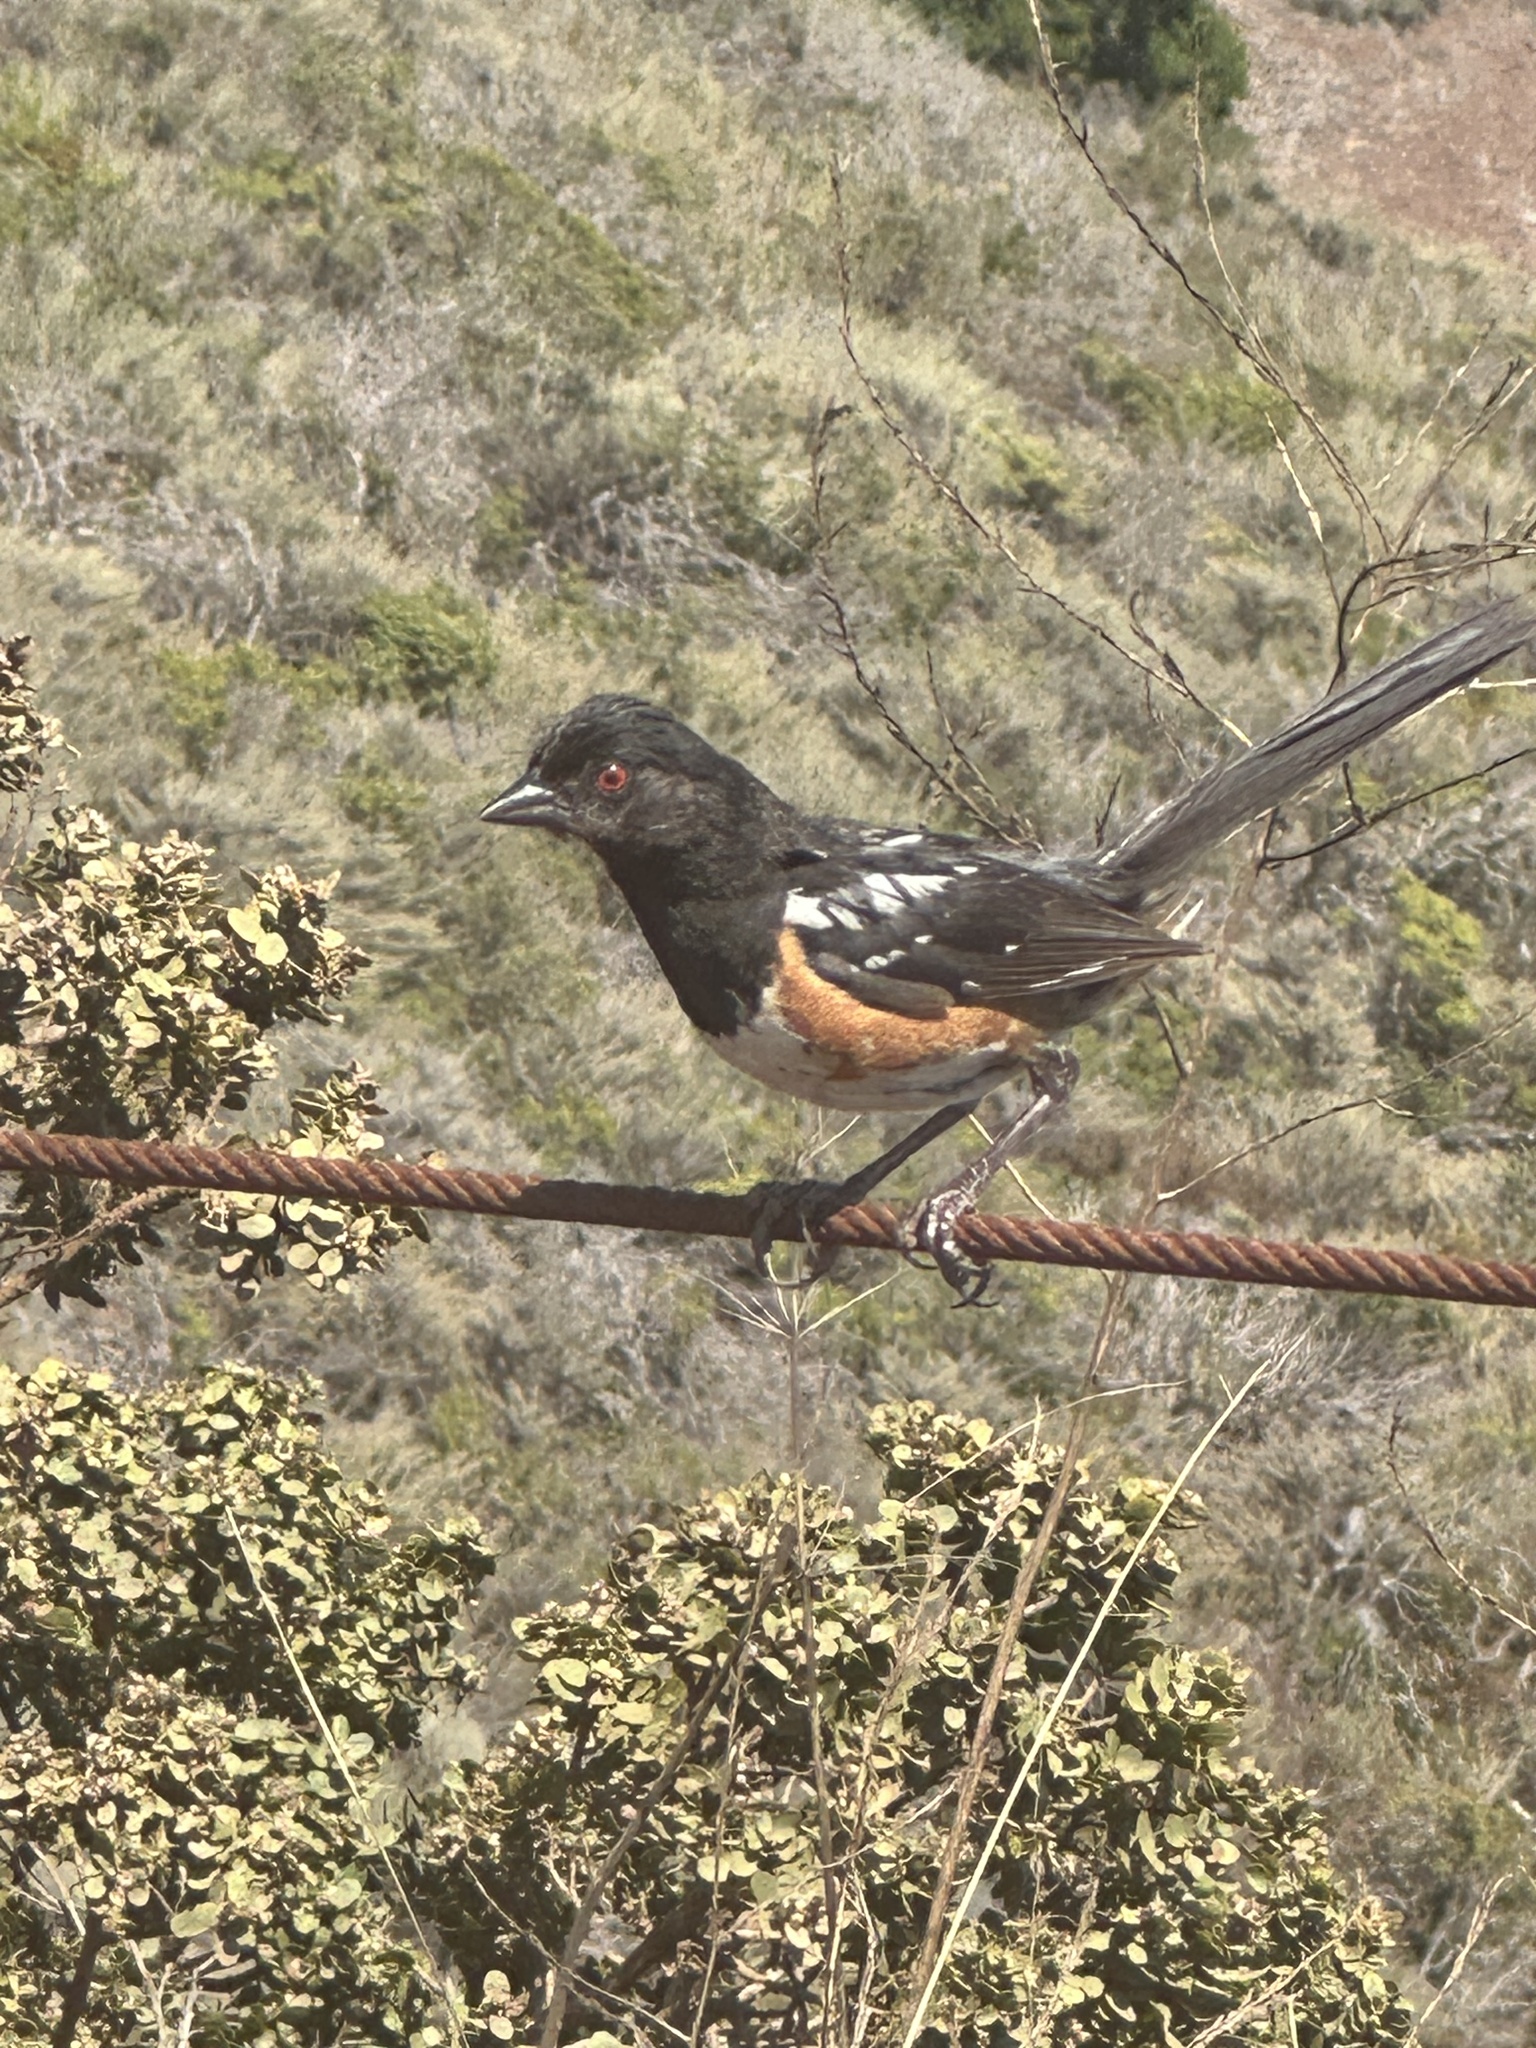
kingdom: Animalia
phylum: Chordata
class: Aves
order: Passeriformes
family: Passerellidae
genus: Pipilo
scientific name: Pipilo maculatus
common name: Spotted towhee
